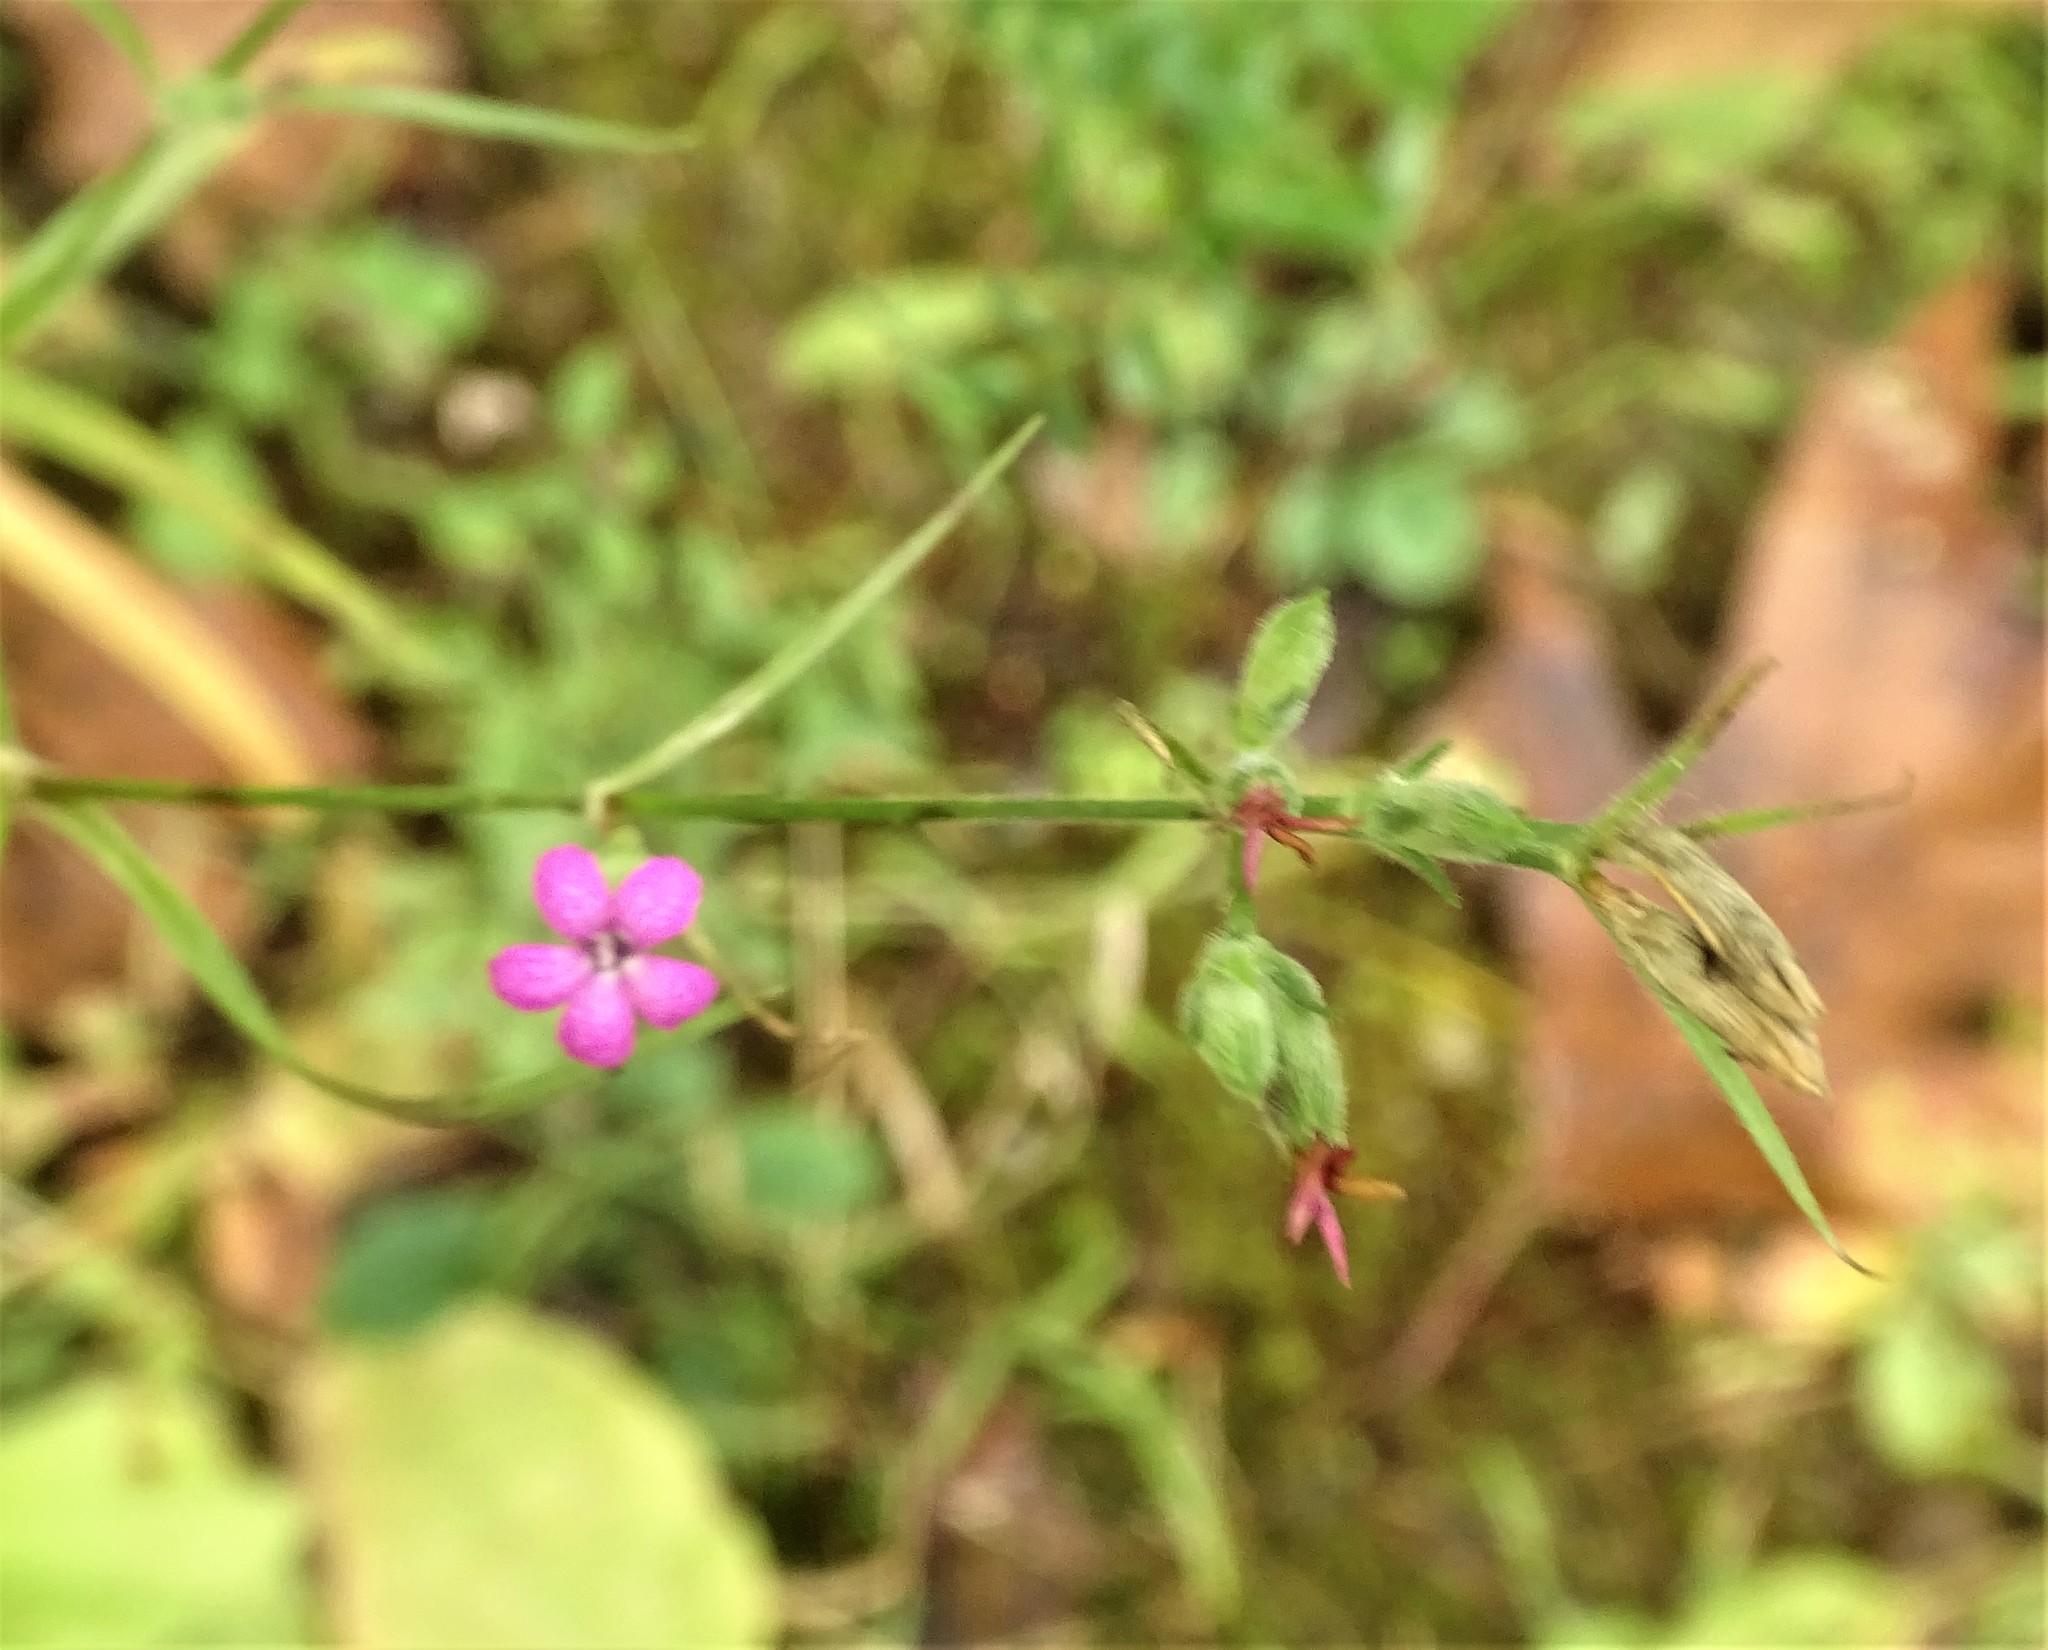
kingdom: Plantae
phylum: Tracheophyta
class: Magnoliopsida
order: Caryophyllales
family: Caryophyllaceae
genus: Dianthus
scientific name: Dianthus armeria
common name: Deptford pink
